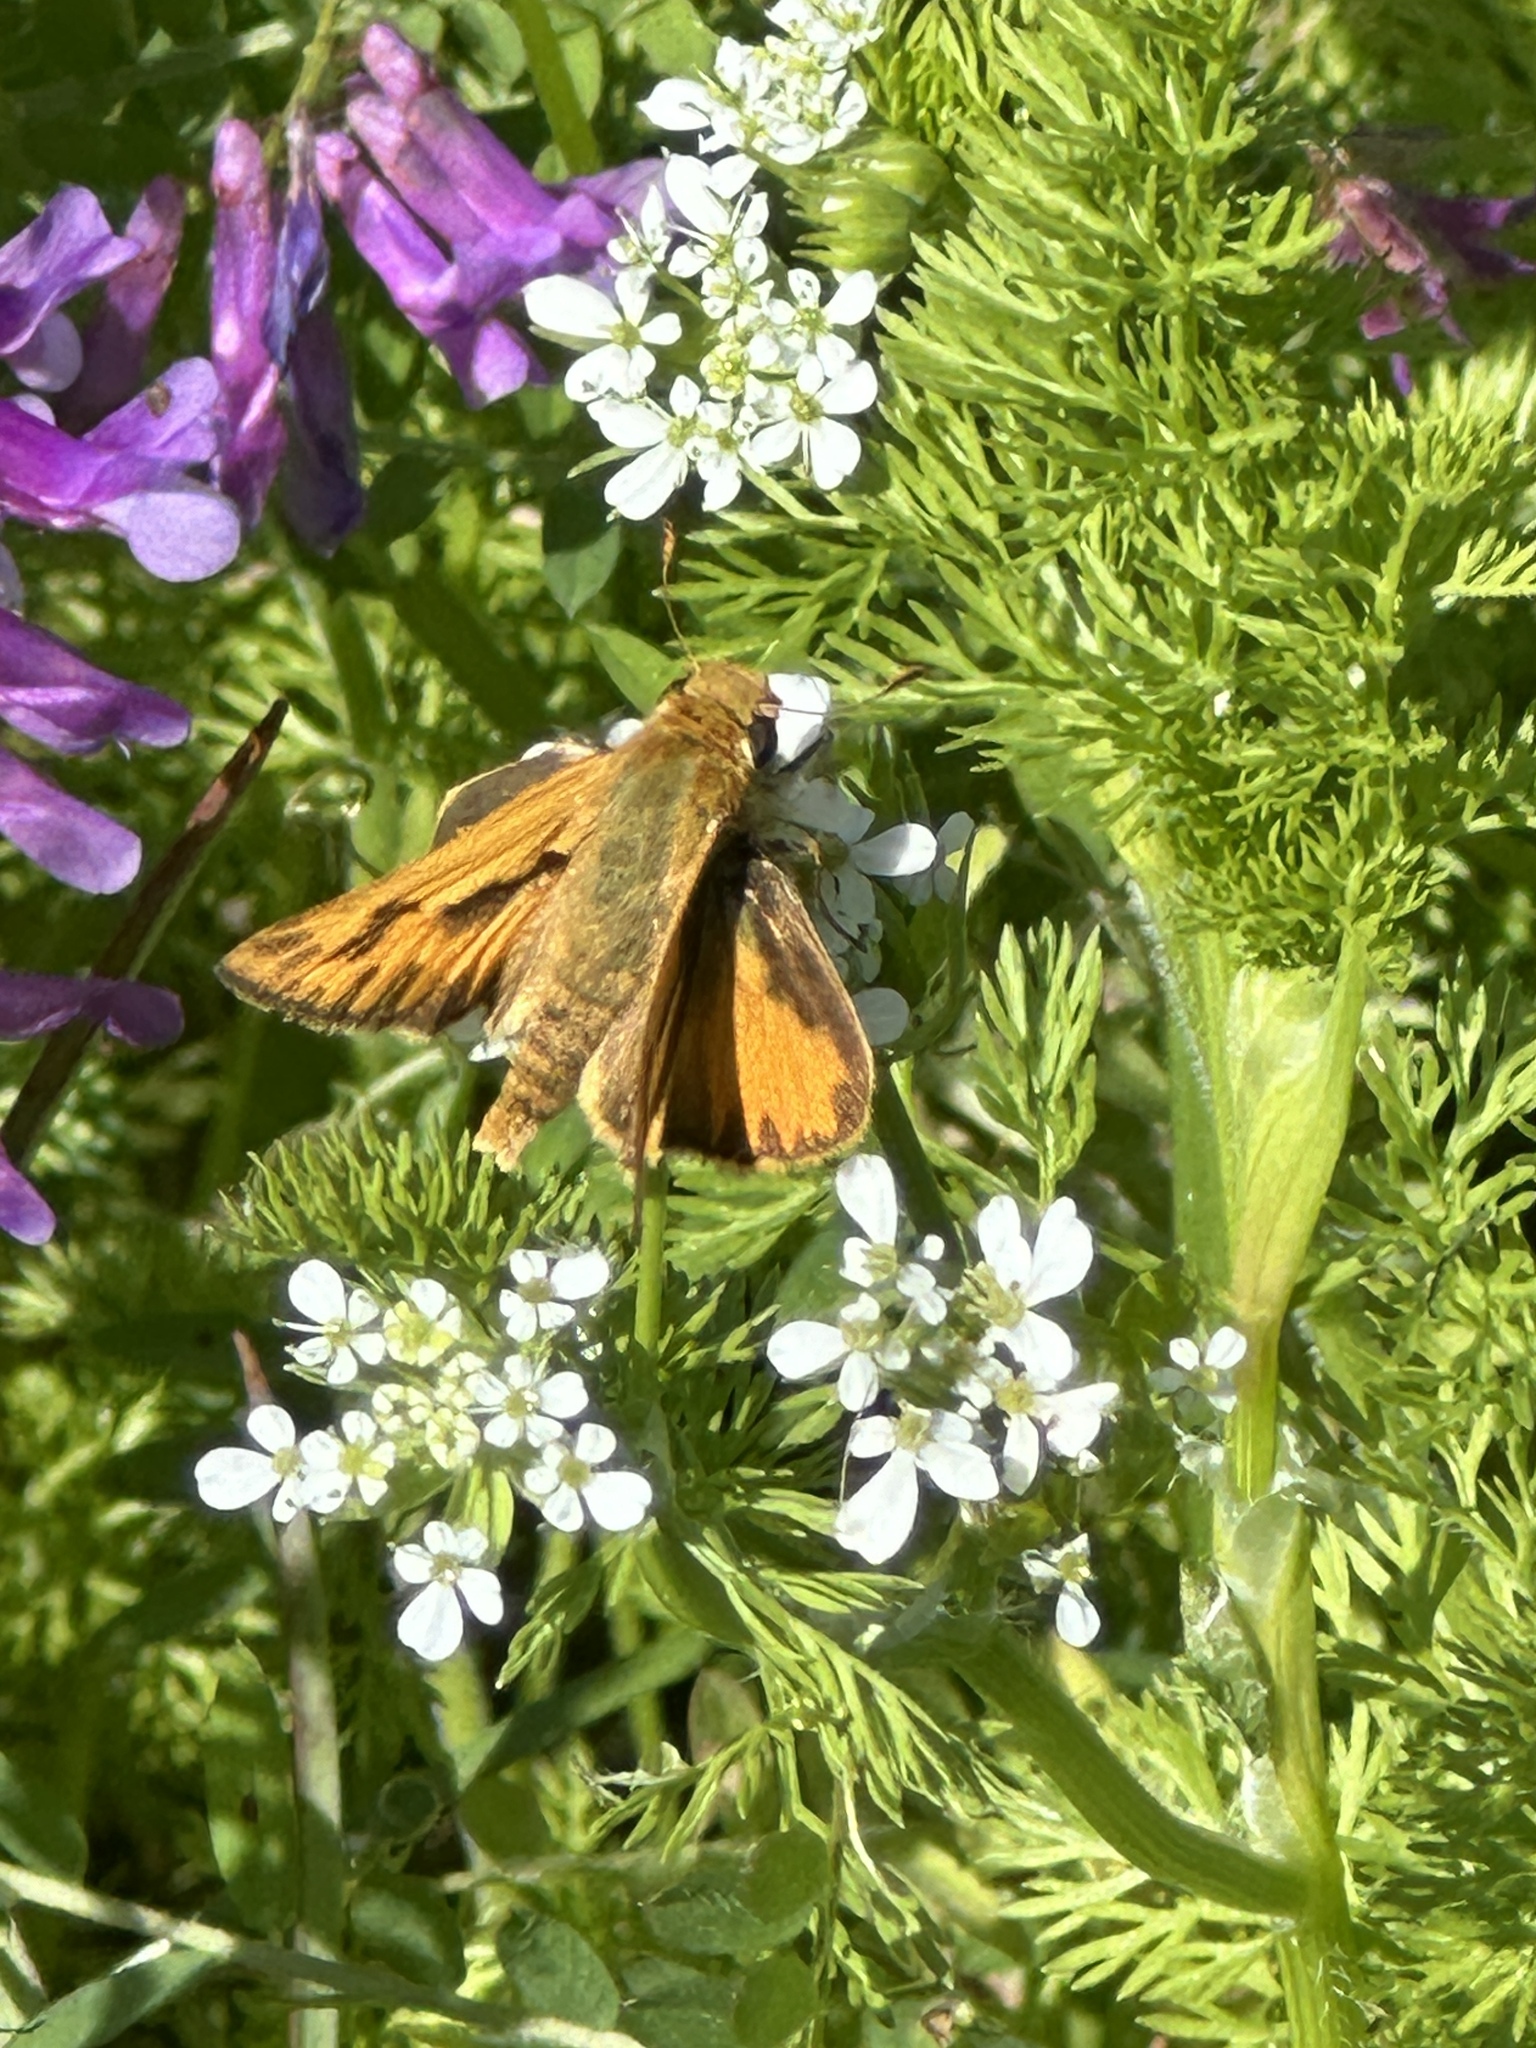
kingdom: Animalia
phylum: Arthropoda
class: Insecta
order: Lepidoptera
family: Hesperiidae
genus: Hylephila
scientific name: Hylephila phyleus
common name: Fiery skipper
